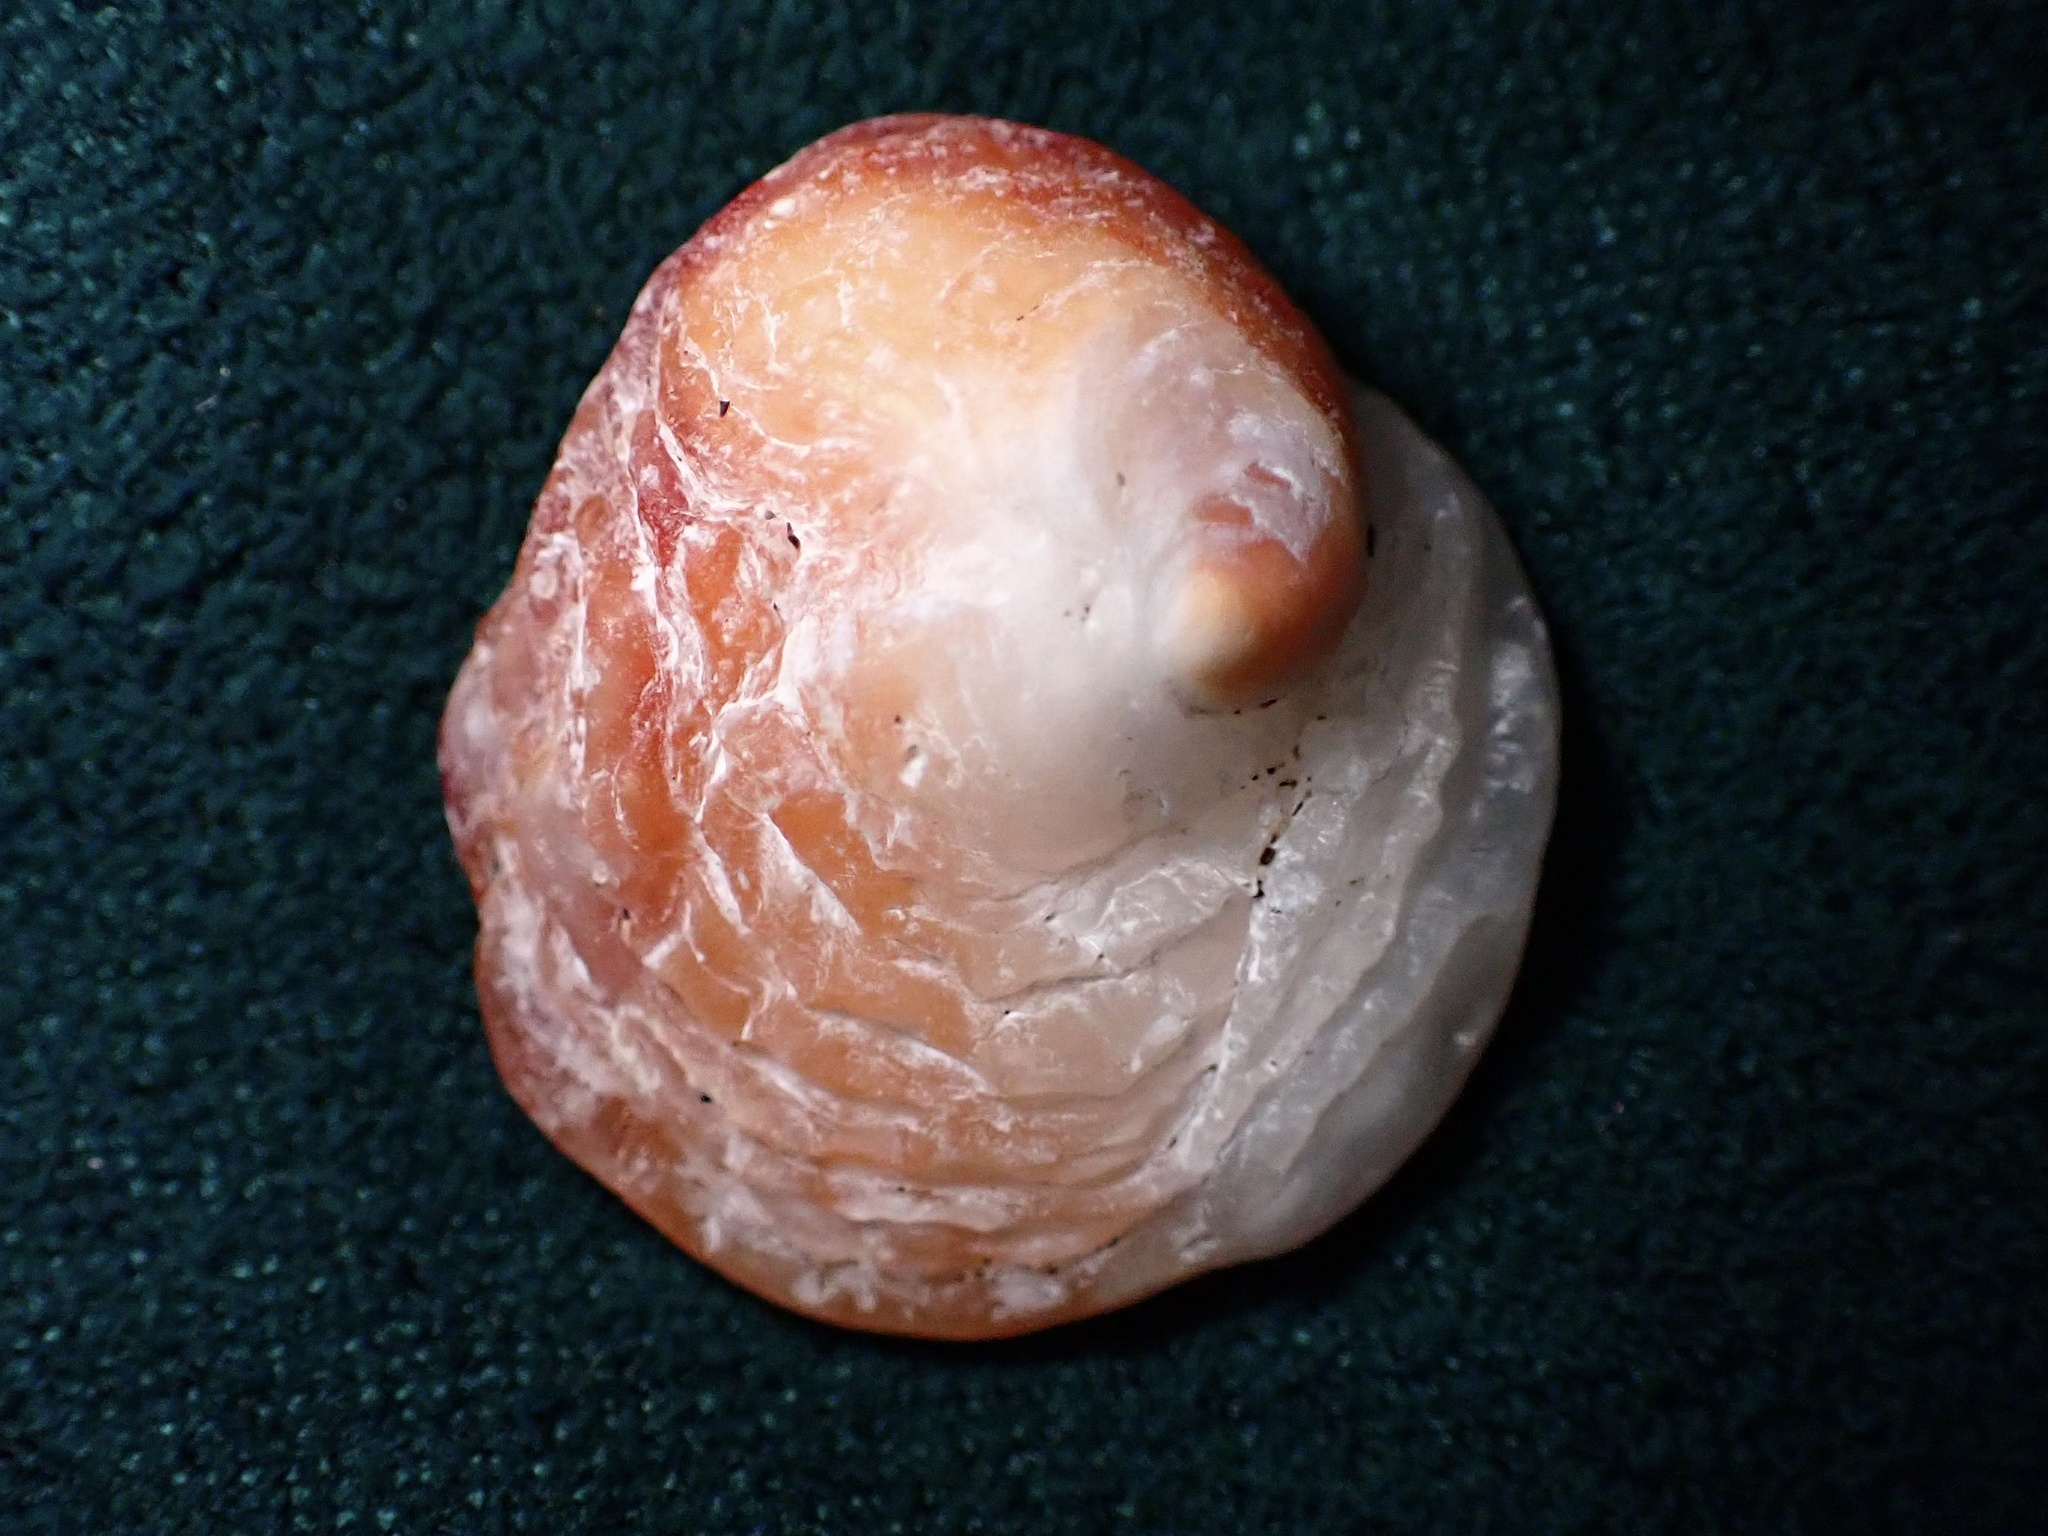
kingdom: Animalia
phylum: Mollusca
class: Bivalvia
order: Venerida
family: Chamidae
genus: Chama
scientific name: Chama arcana
